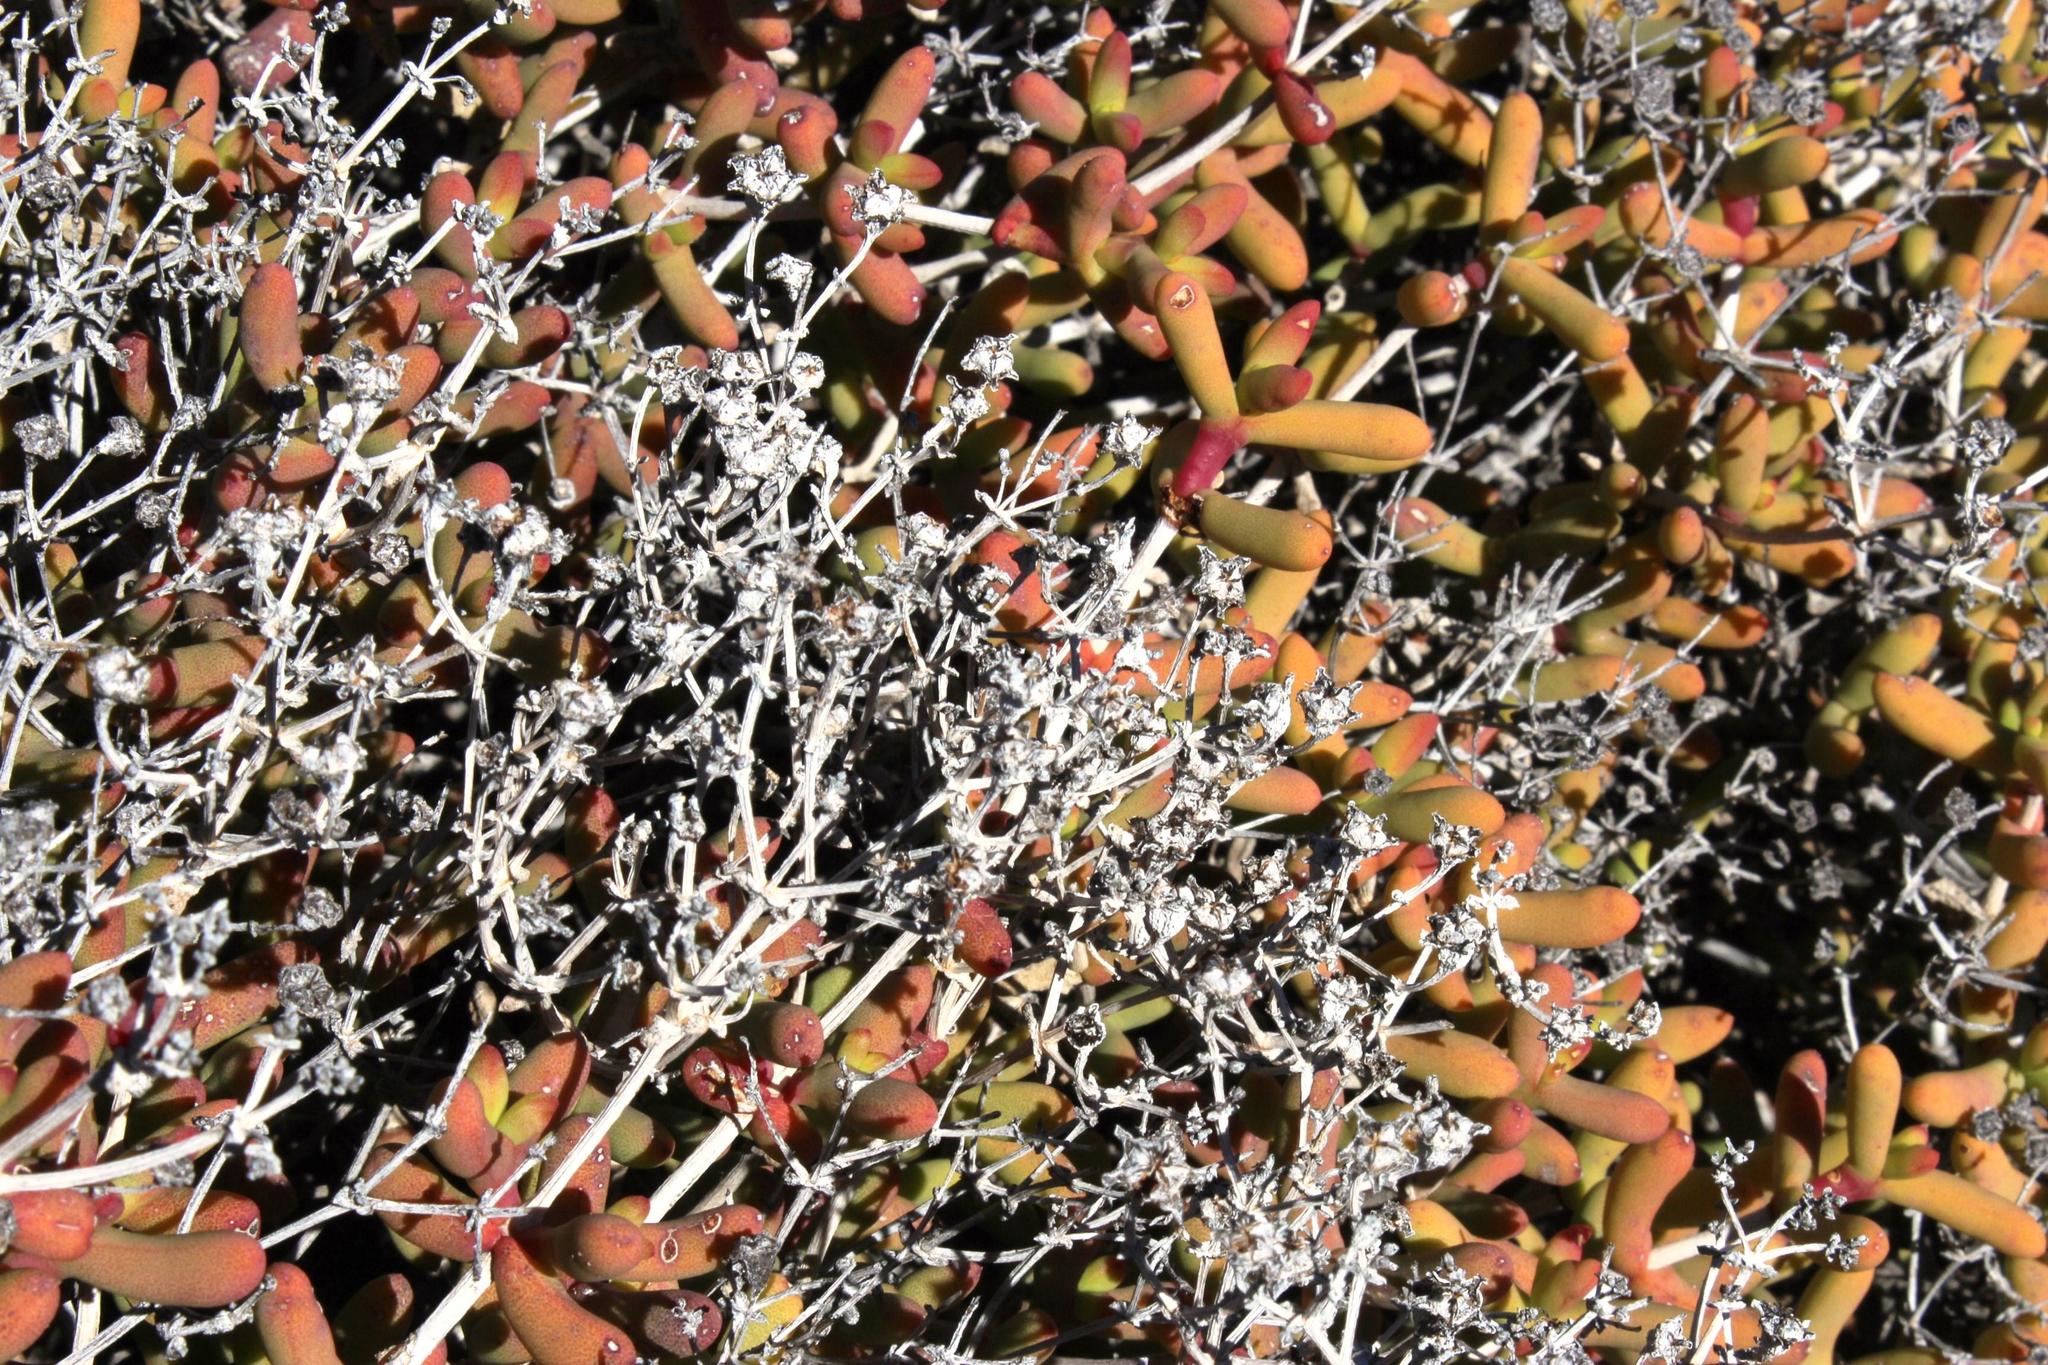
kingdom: Plantae
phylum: Tracheophyta
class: Magnoliopsida
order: Caryophyllales
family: Aizoaceae
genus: Eberlanzia
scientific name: Eberlanzia cyathiformis
